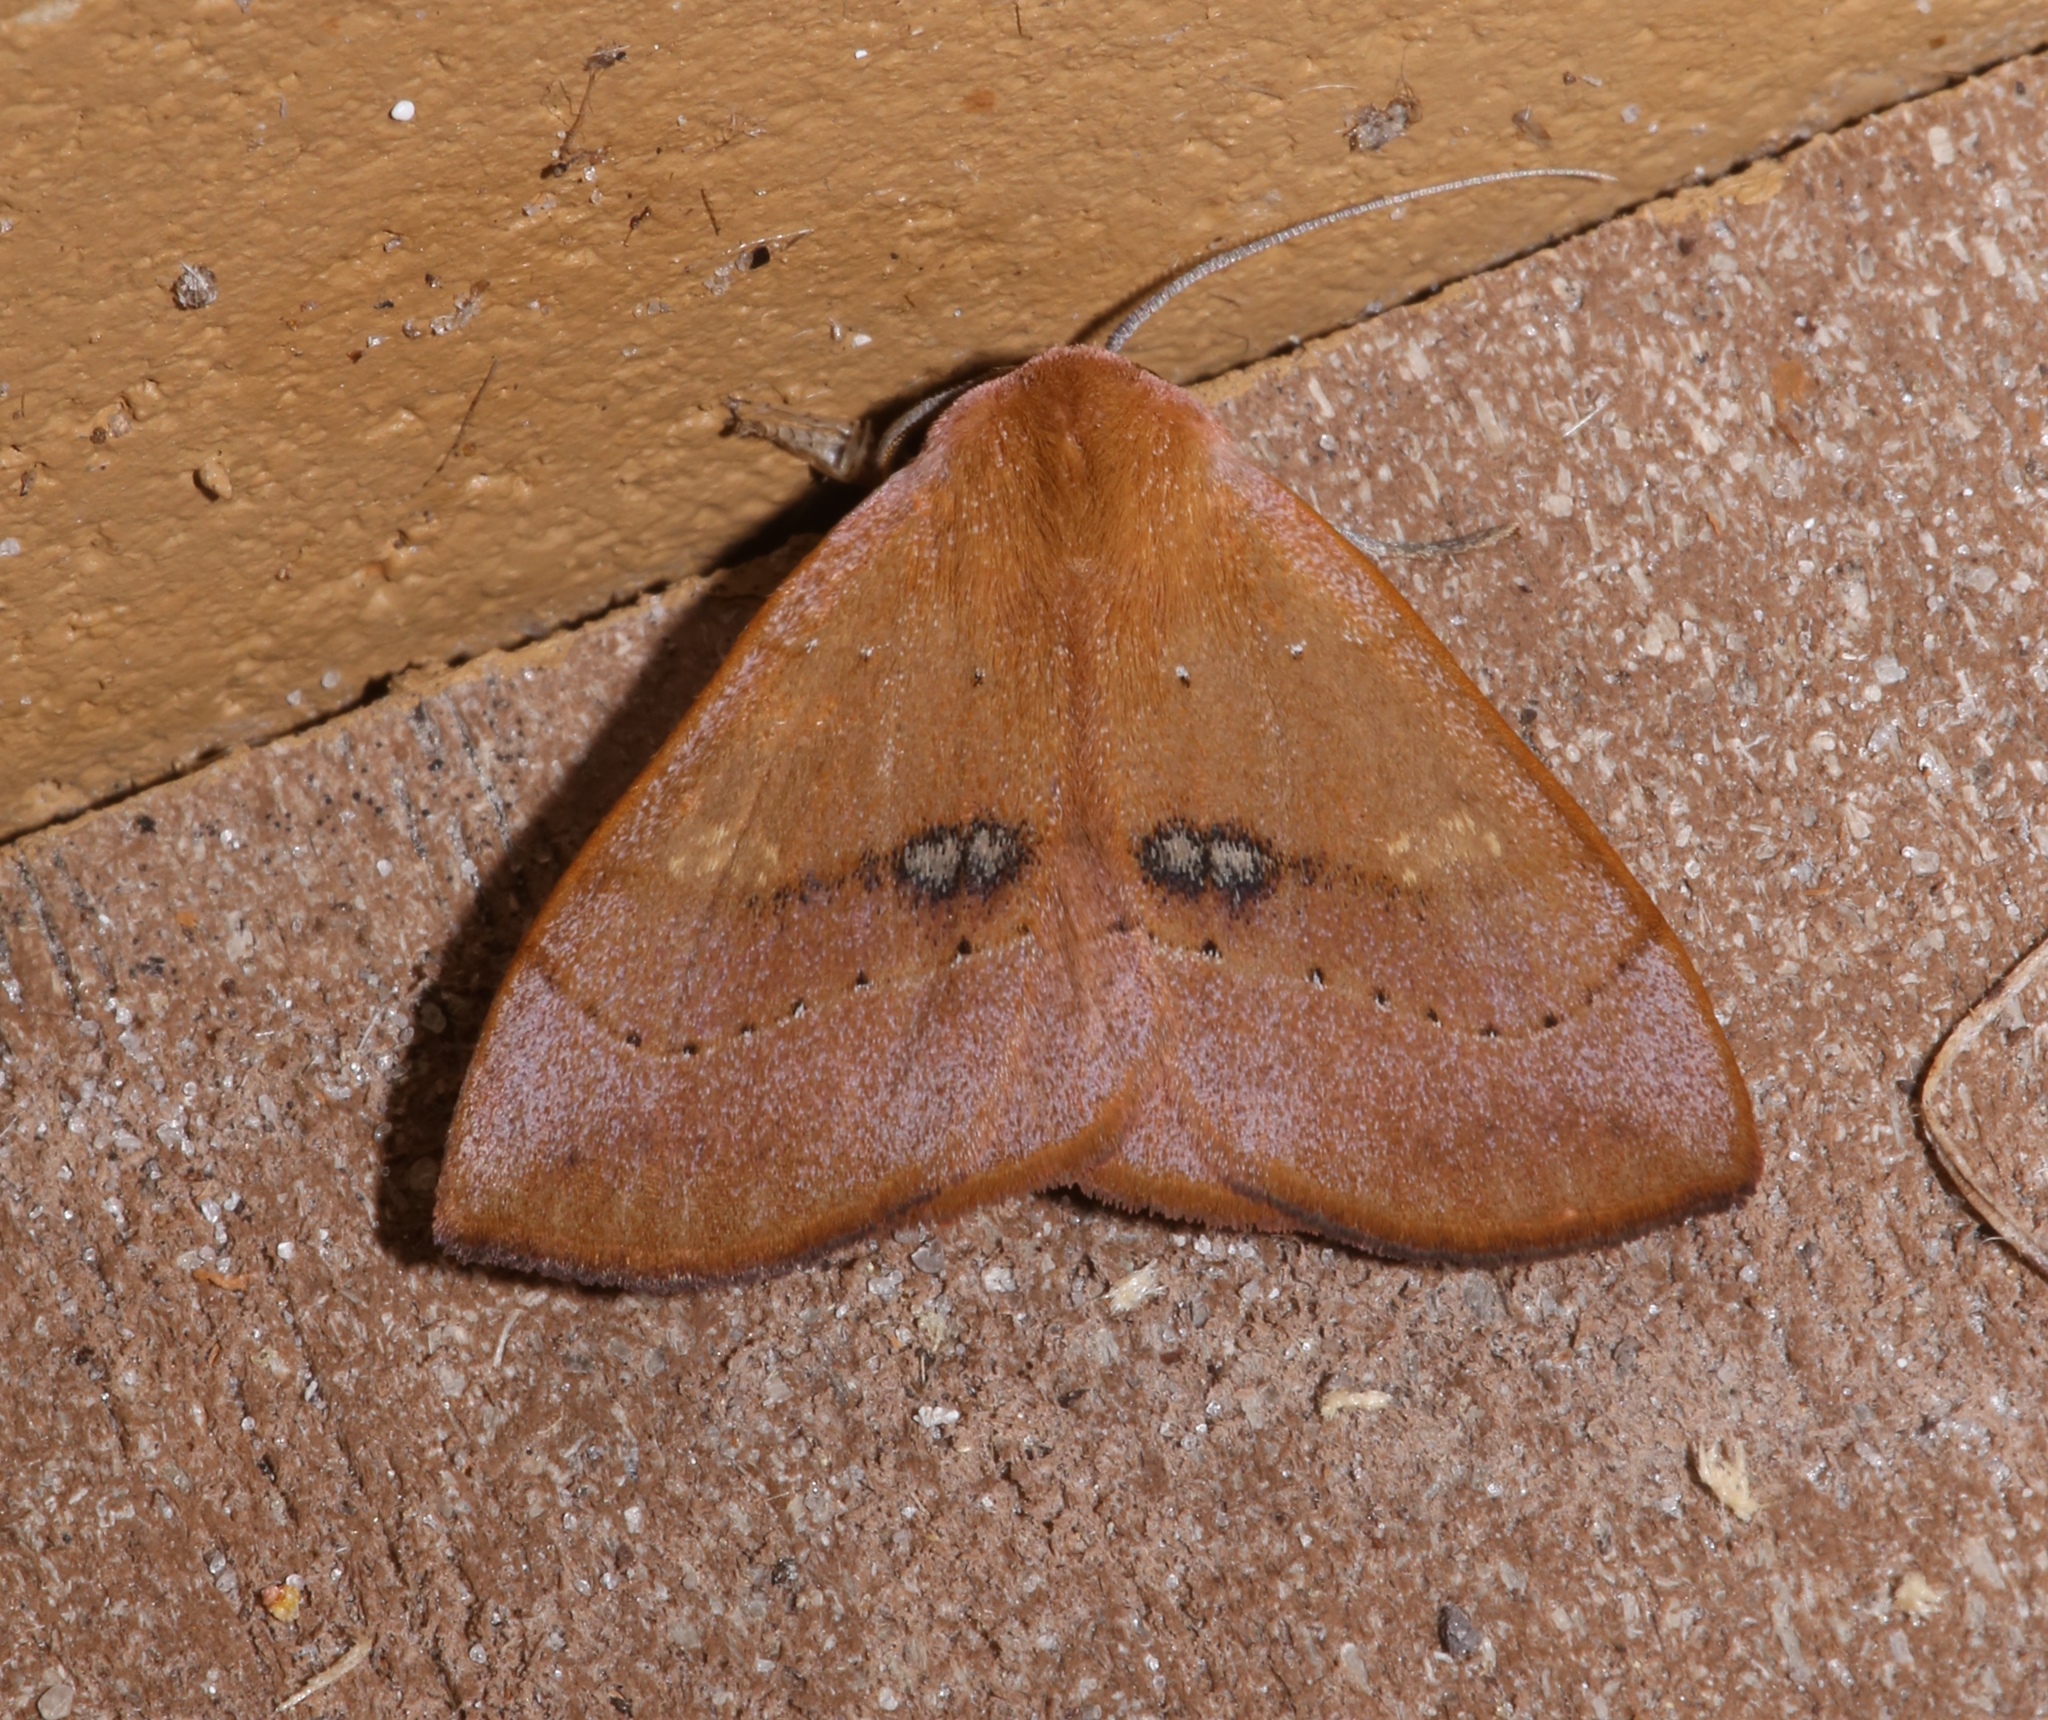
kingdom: Animalia
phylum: Arthropoda
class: Insecta
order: Lepidoptera
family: Erebidae
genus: Panopoda
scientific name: Panopoda repanda
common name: Orange panopoda
